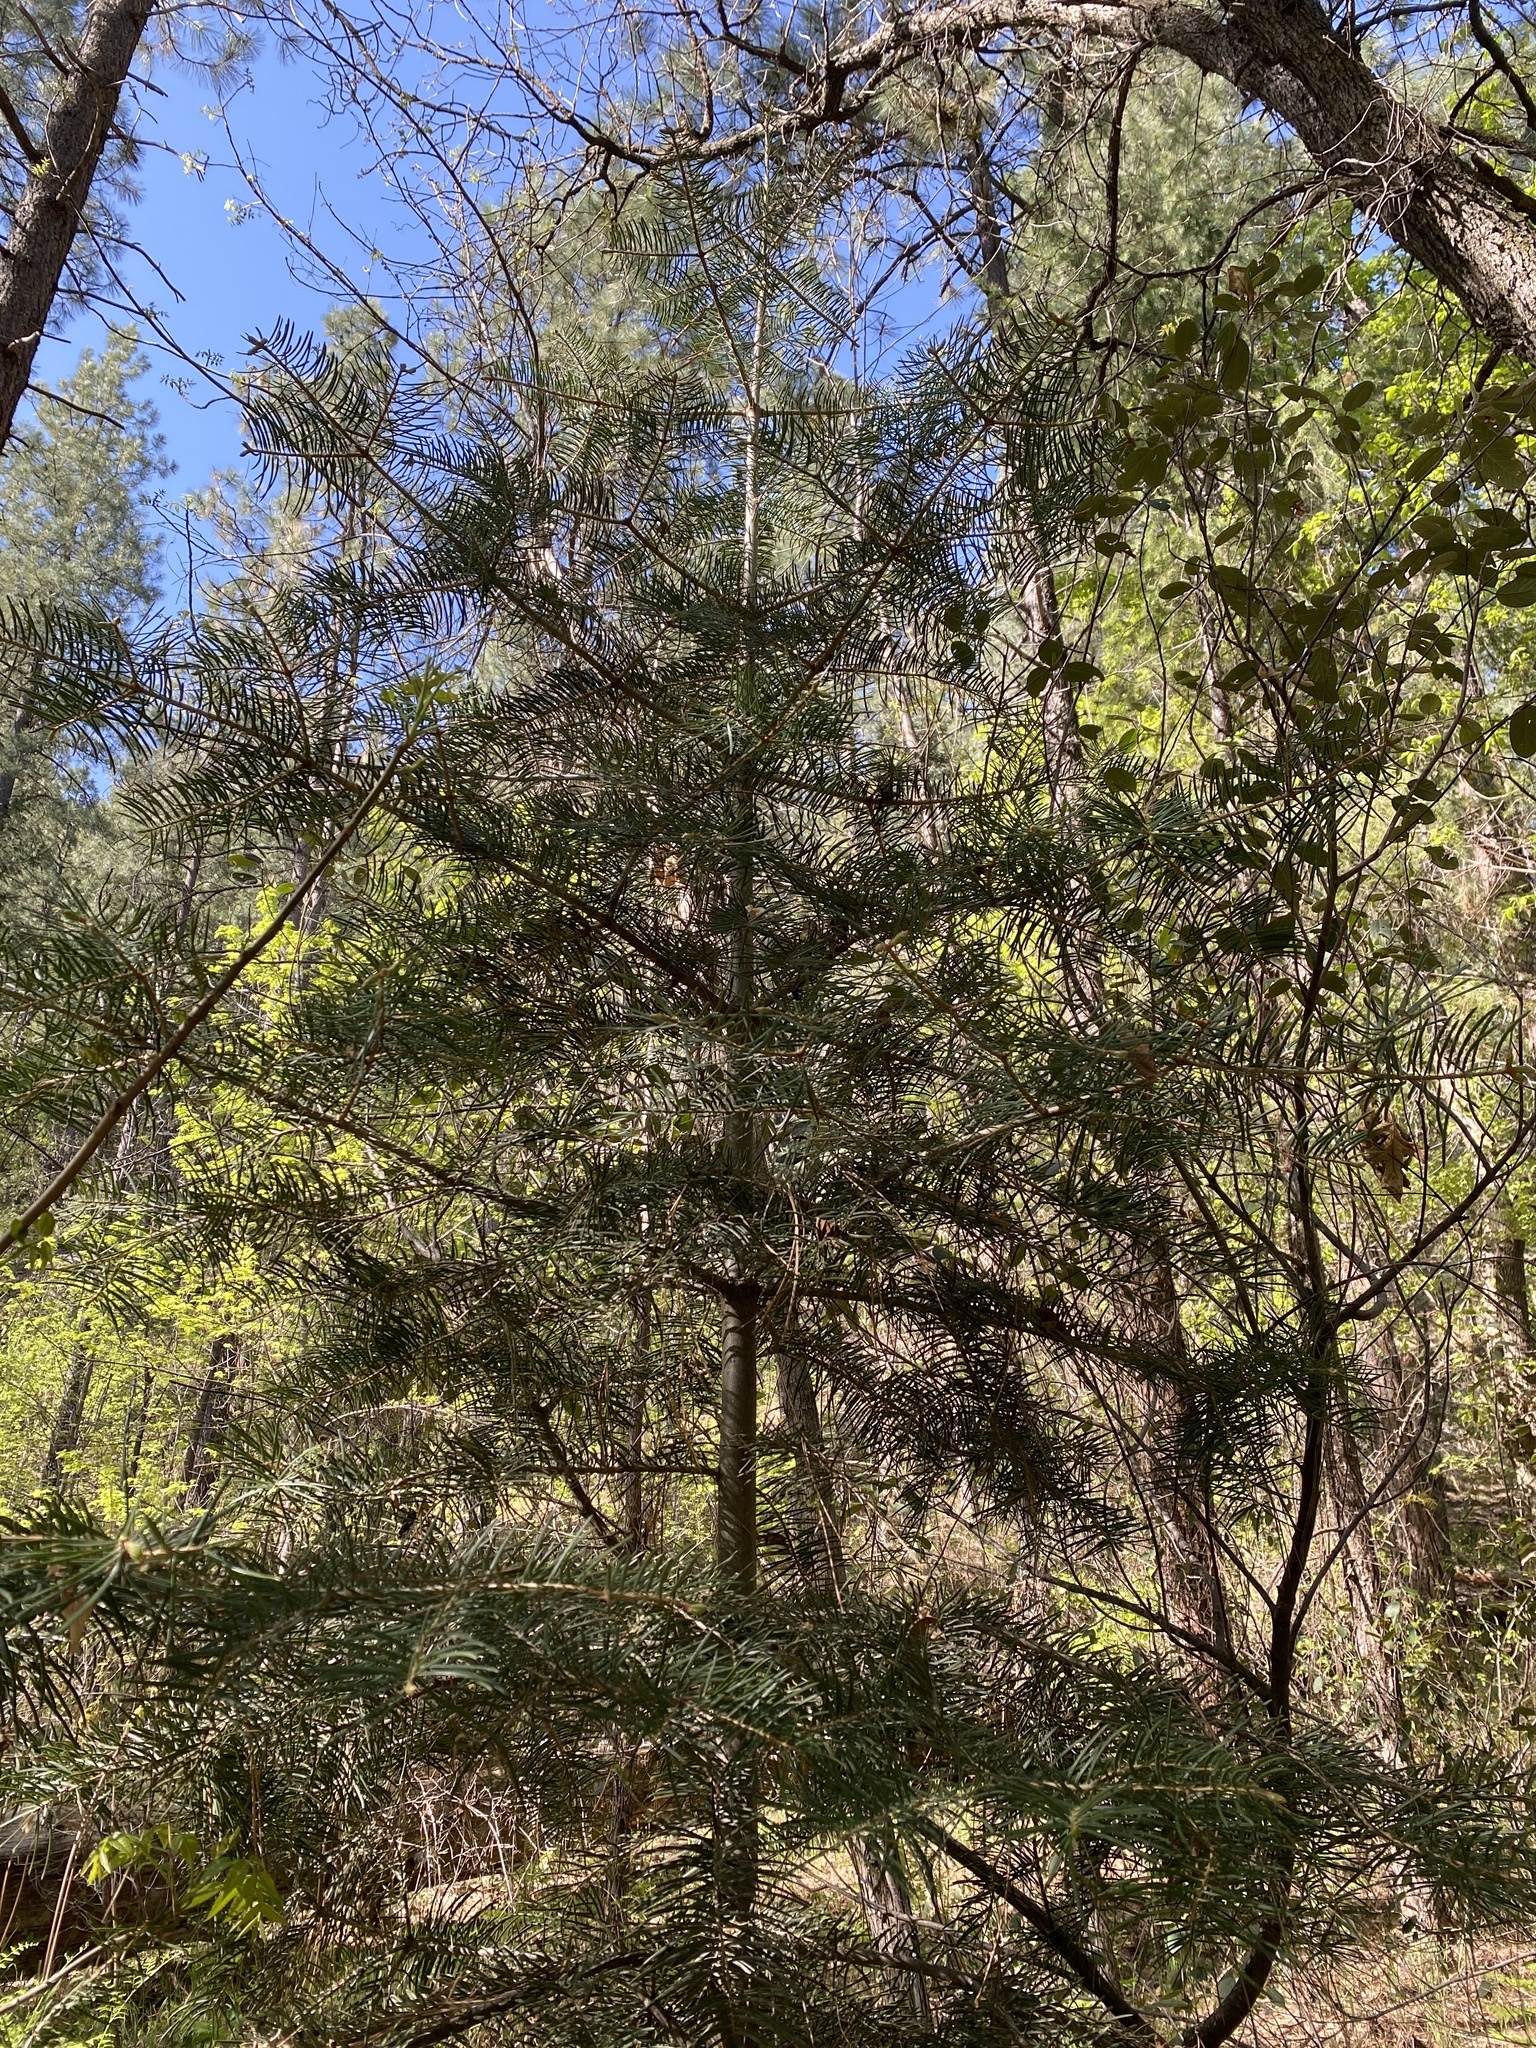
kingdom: Plantae
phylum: Tracheophyta
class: Pinopsida
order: Pinales
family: Pinaceae
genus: Abies
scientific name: Abies concolor
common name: Colorado fir
